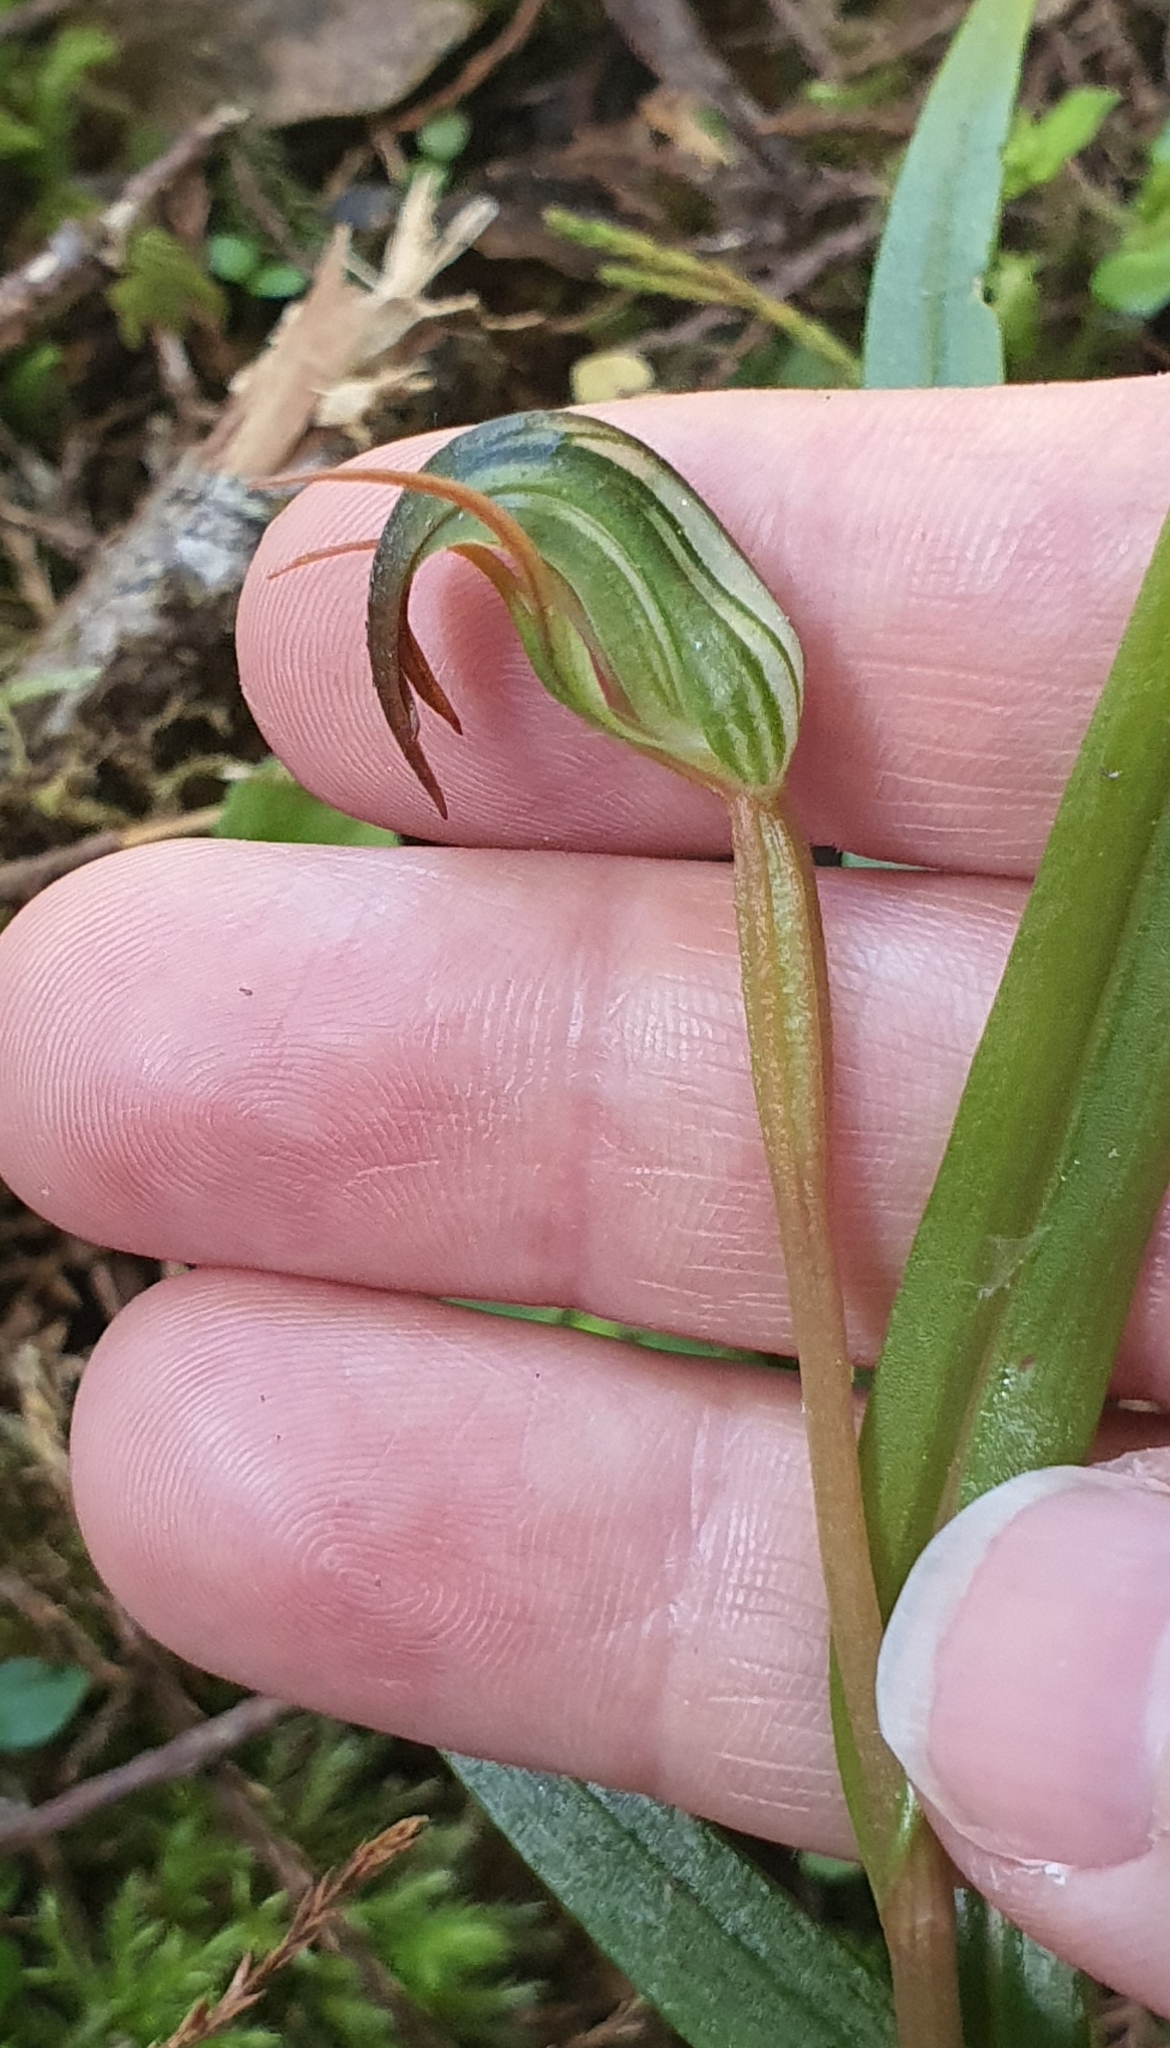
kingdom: Plantae
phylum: Tracheophyta
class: Liliopsida
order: Asparagales
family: Orchidaceae
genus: Pterostylis
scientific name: Pterostylis graminea
